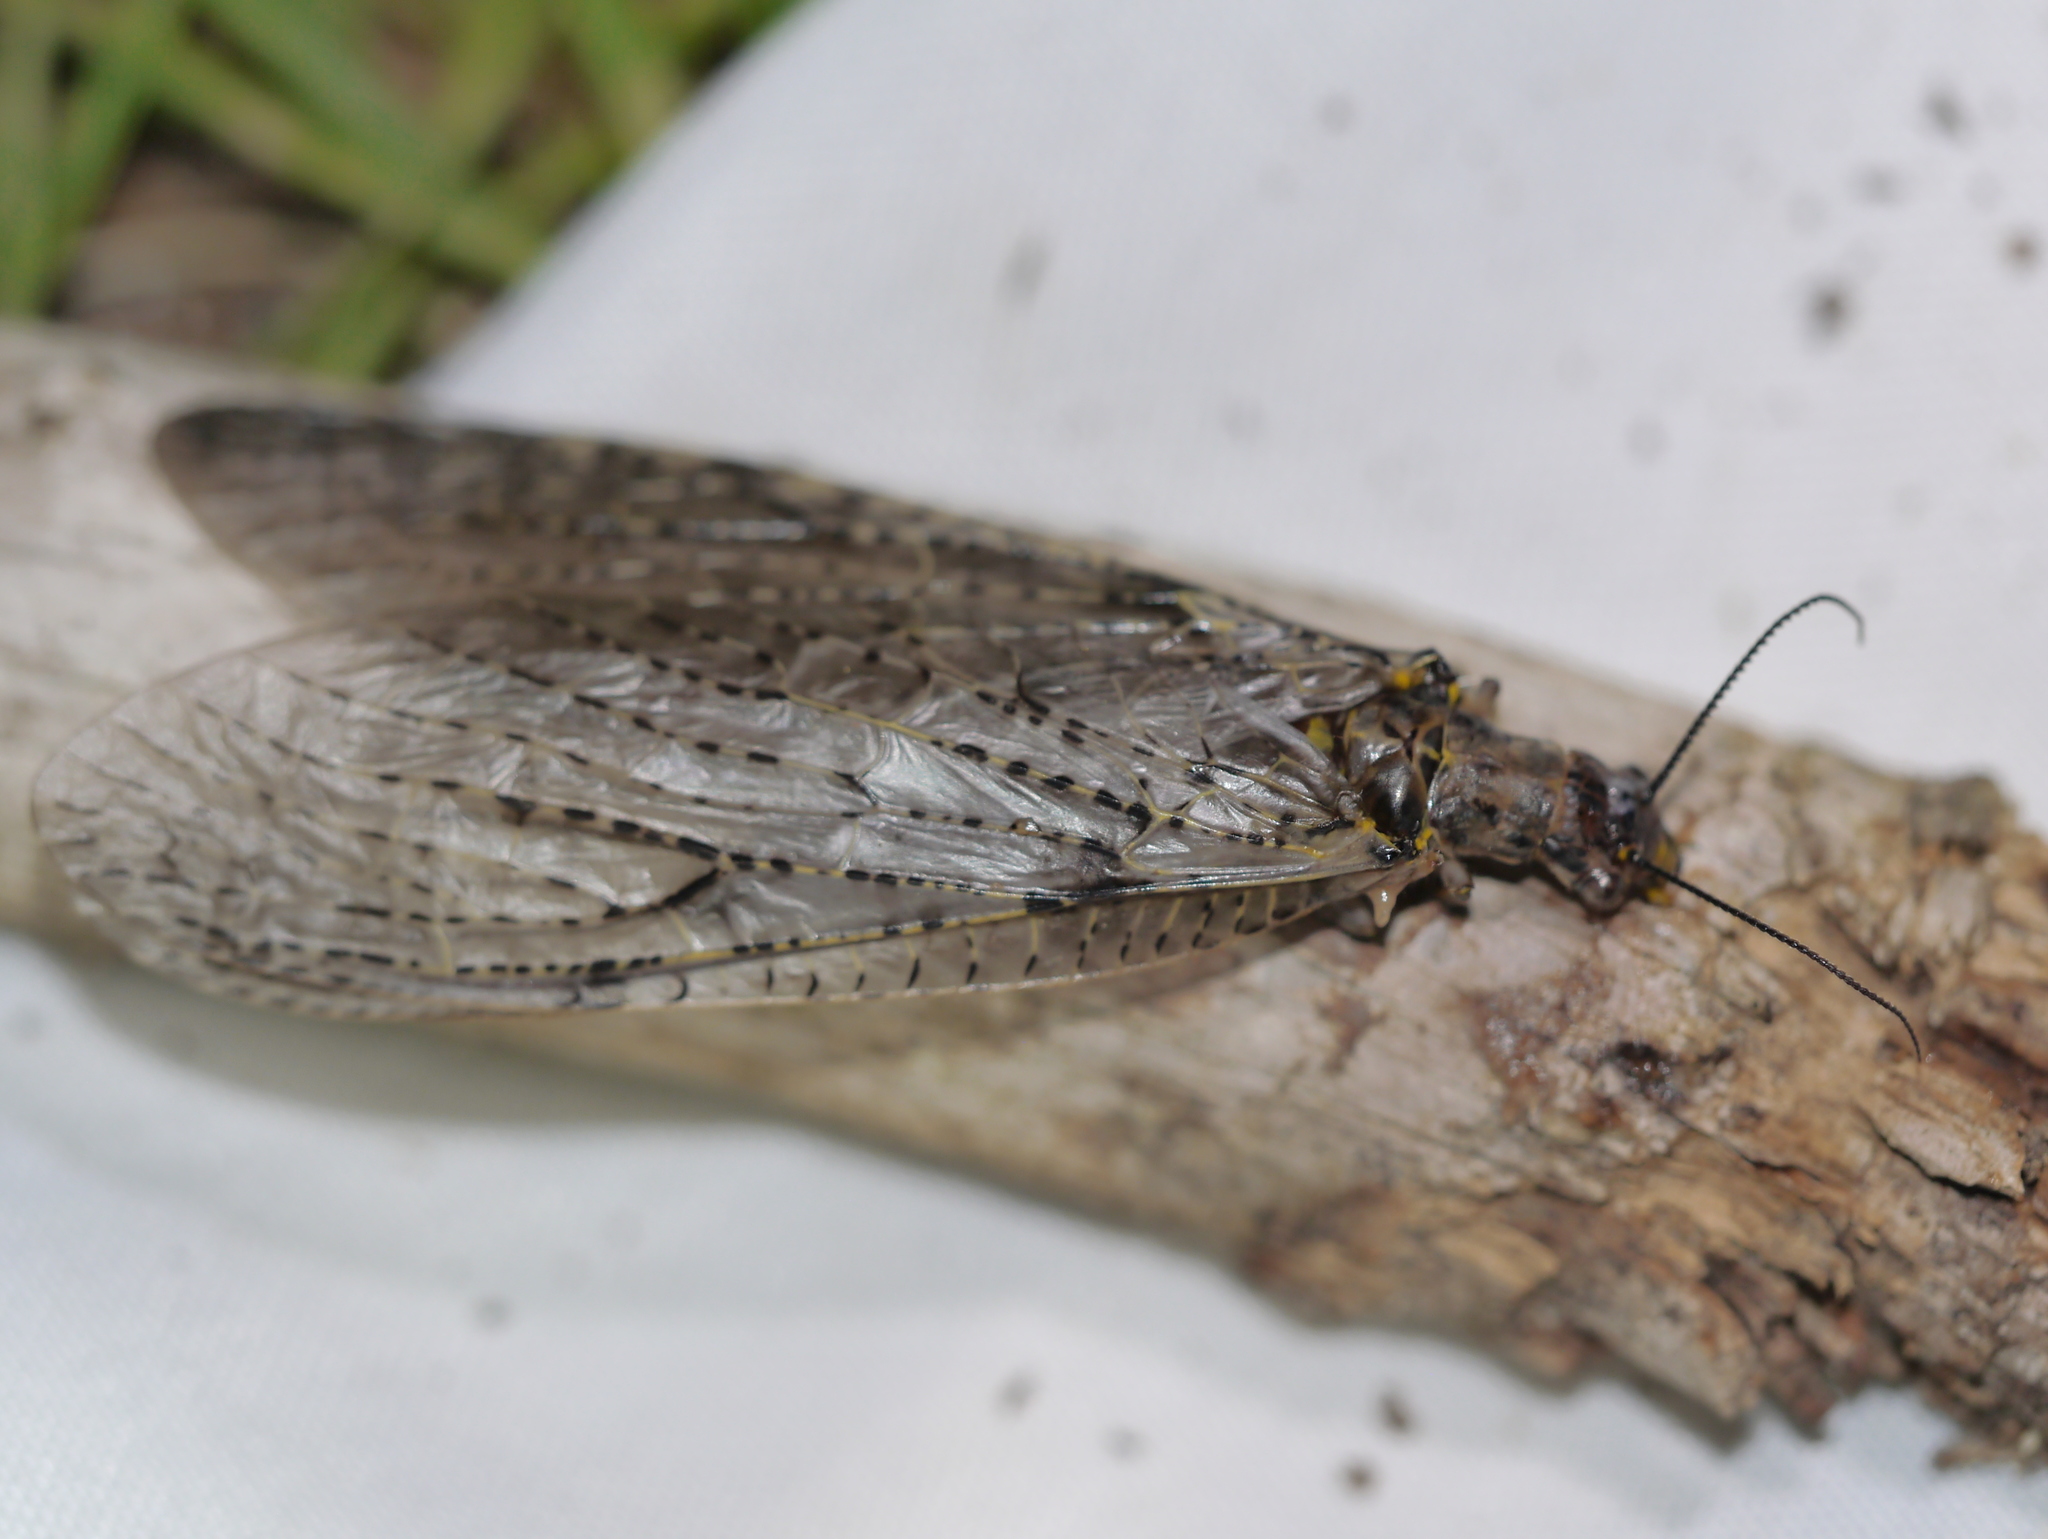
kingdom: Animalia
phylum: Arthropoda
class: Insecta
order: Megaloptera
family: Corydalidae
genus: Chauliodes
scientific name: Chauliodes rastricornis
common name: Spring fishfly
